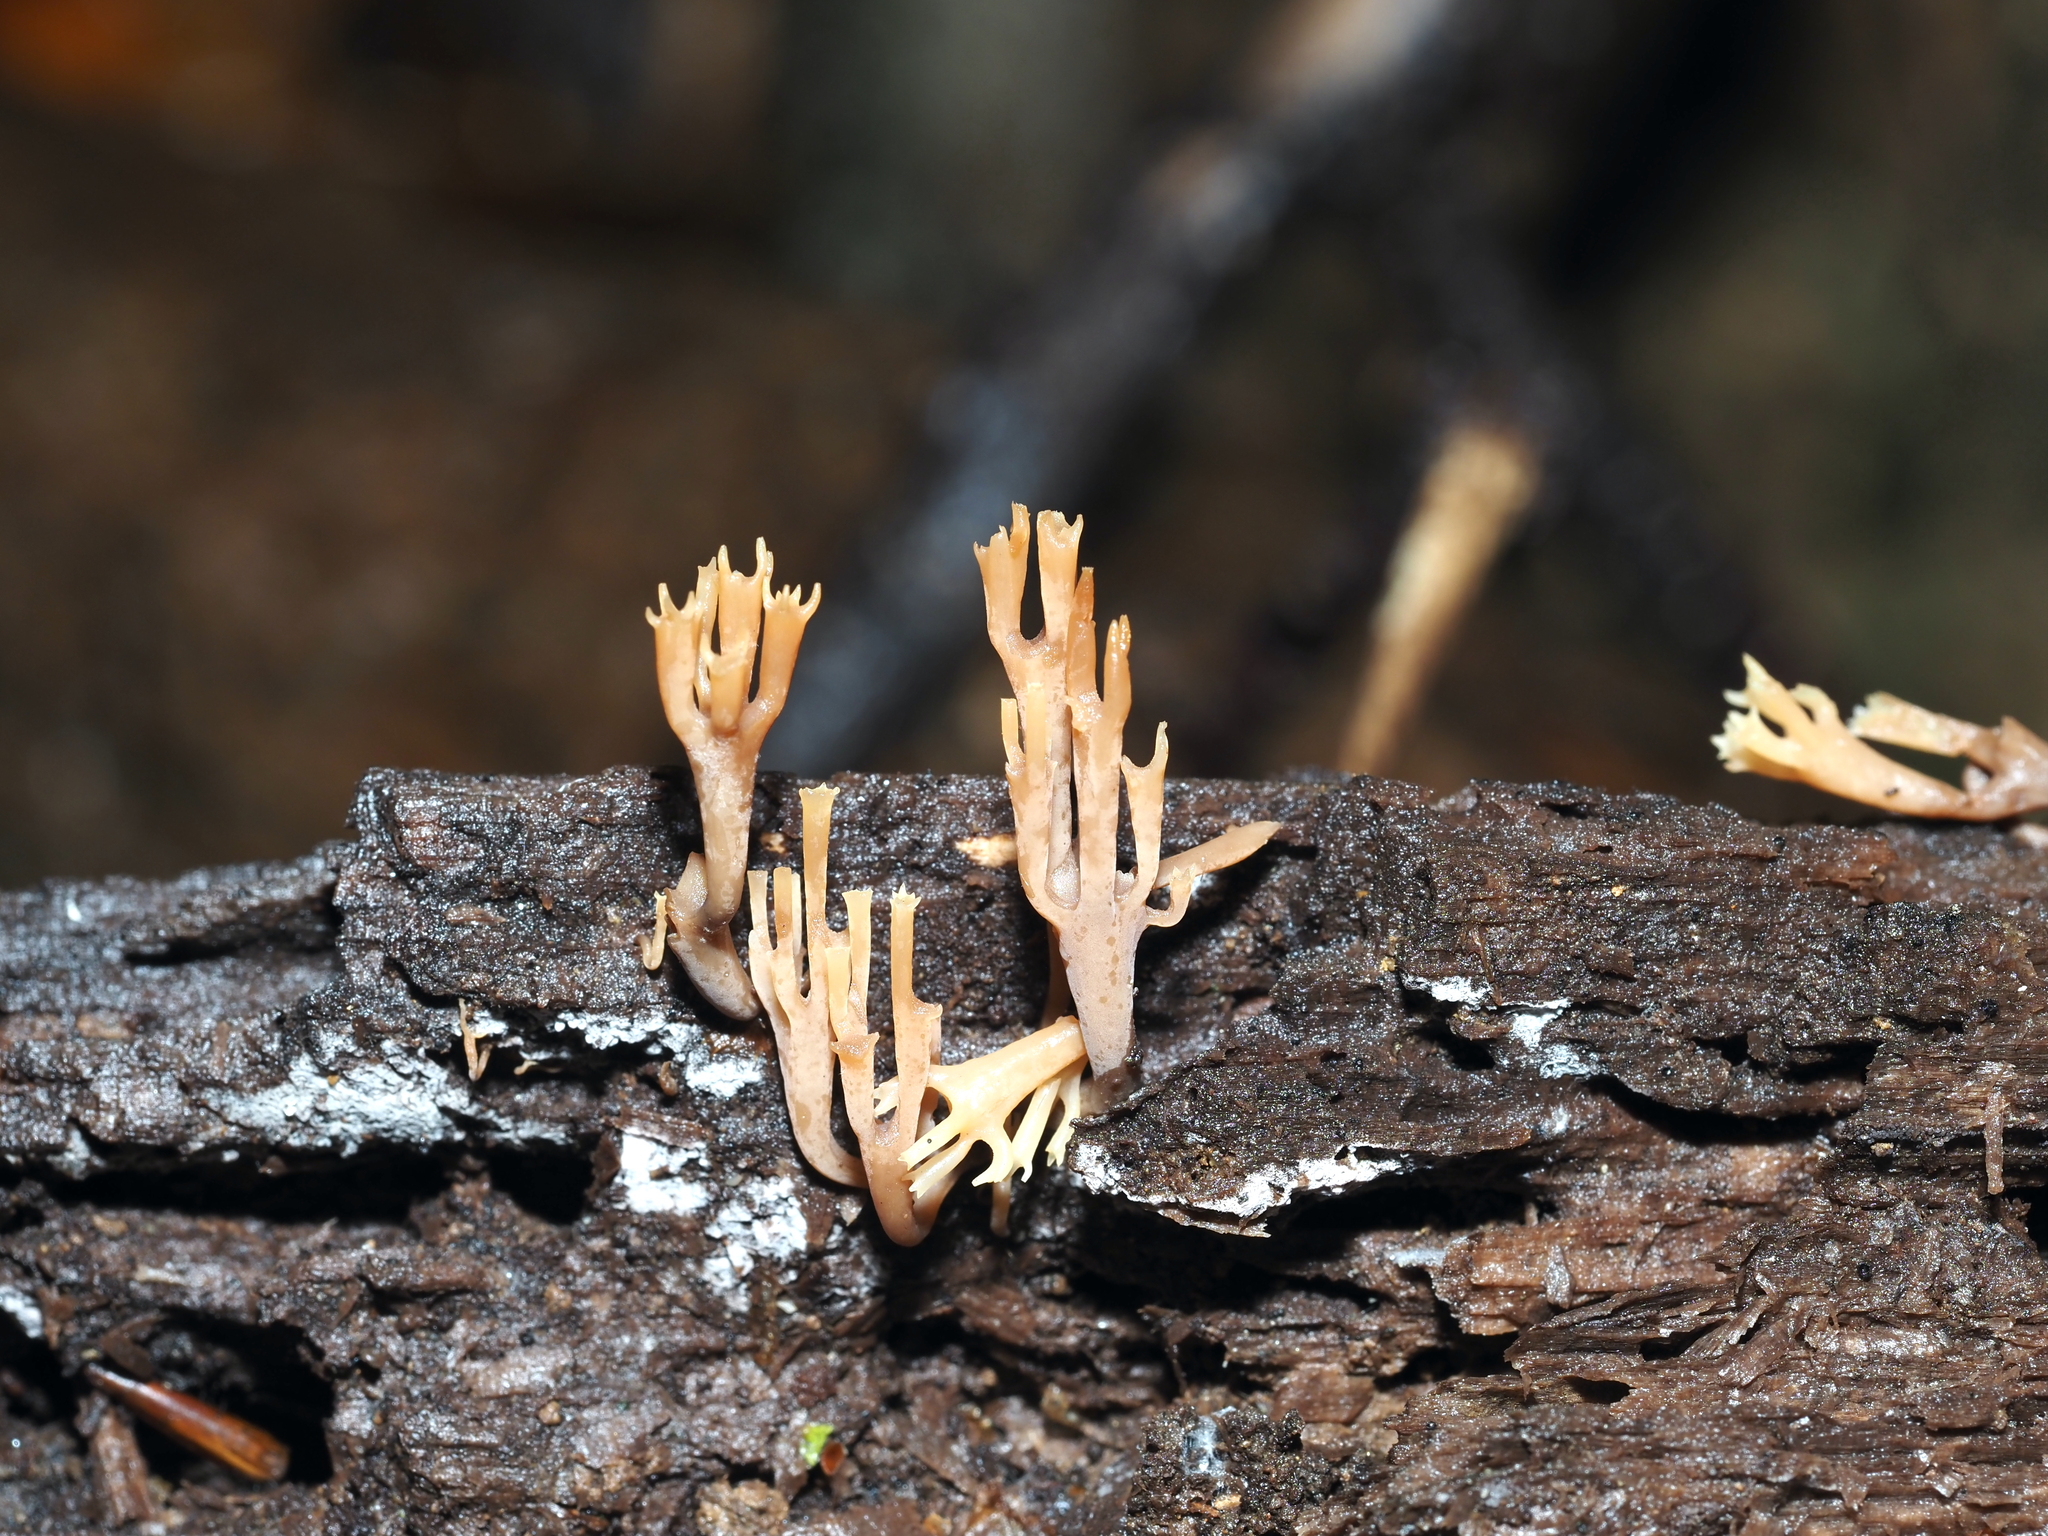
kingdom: Fungi
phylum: Basidiomycota
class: Agaricomycetes
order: Russulales
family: Auriscalpiaceae
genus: Artomyces
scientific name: Artomyces pyxidatus
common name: Crown-tipped coral fungus
